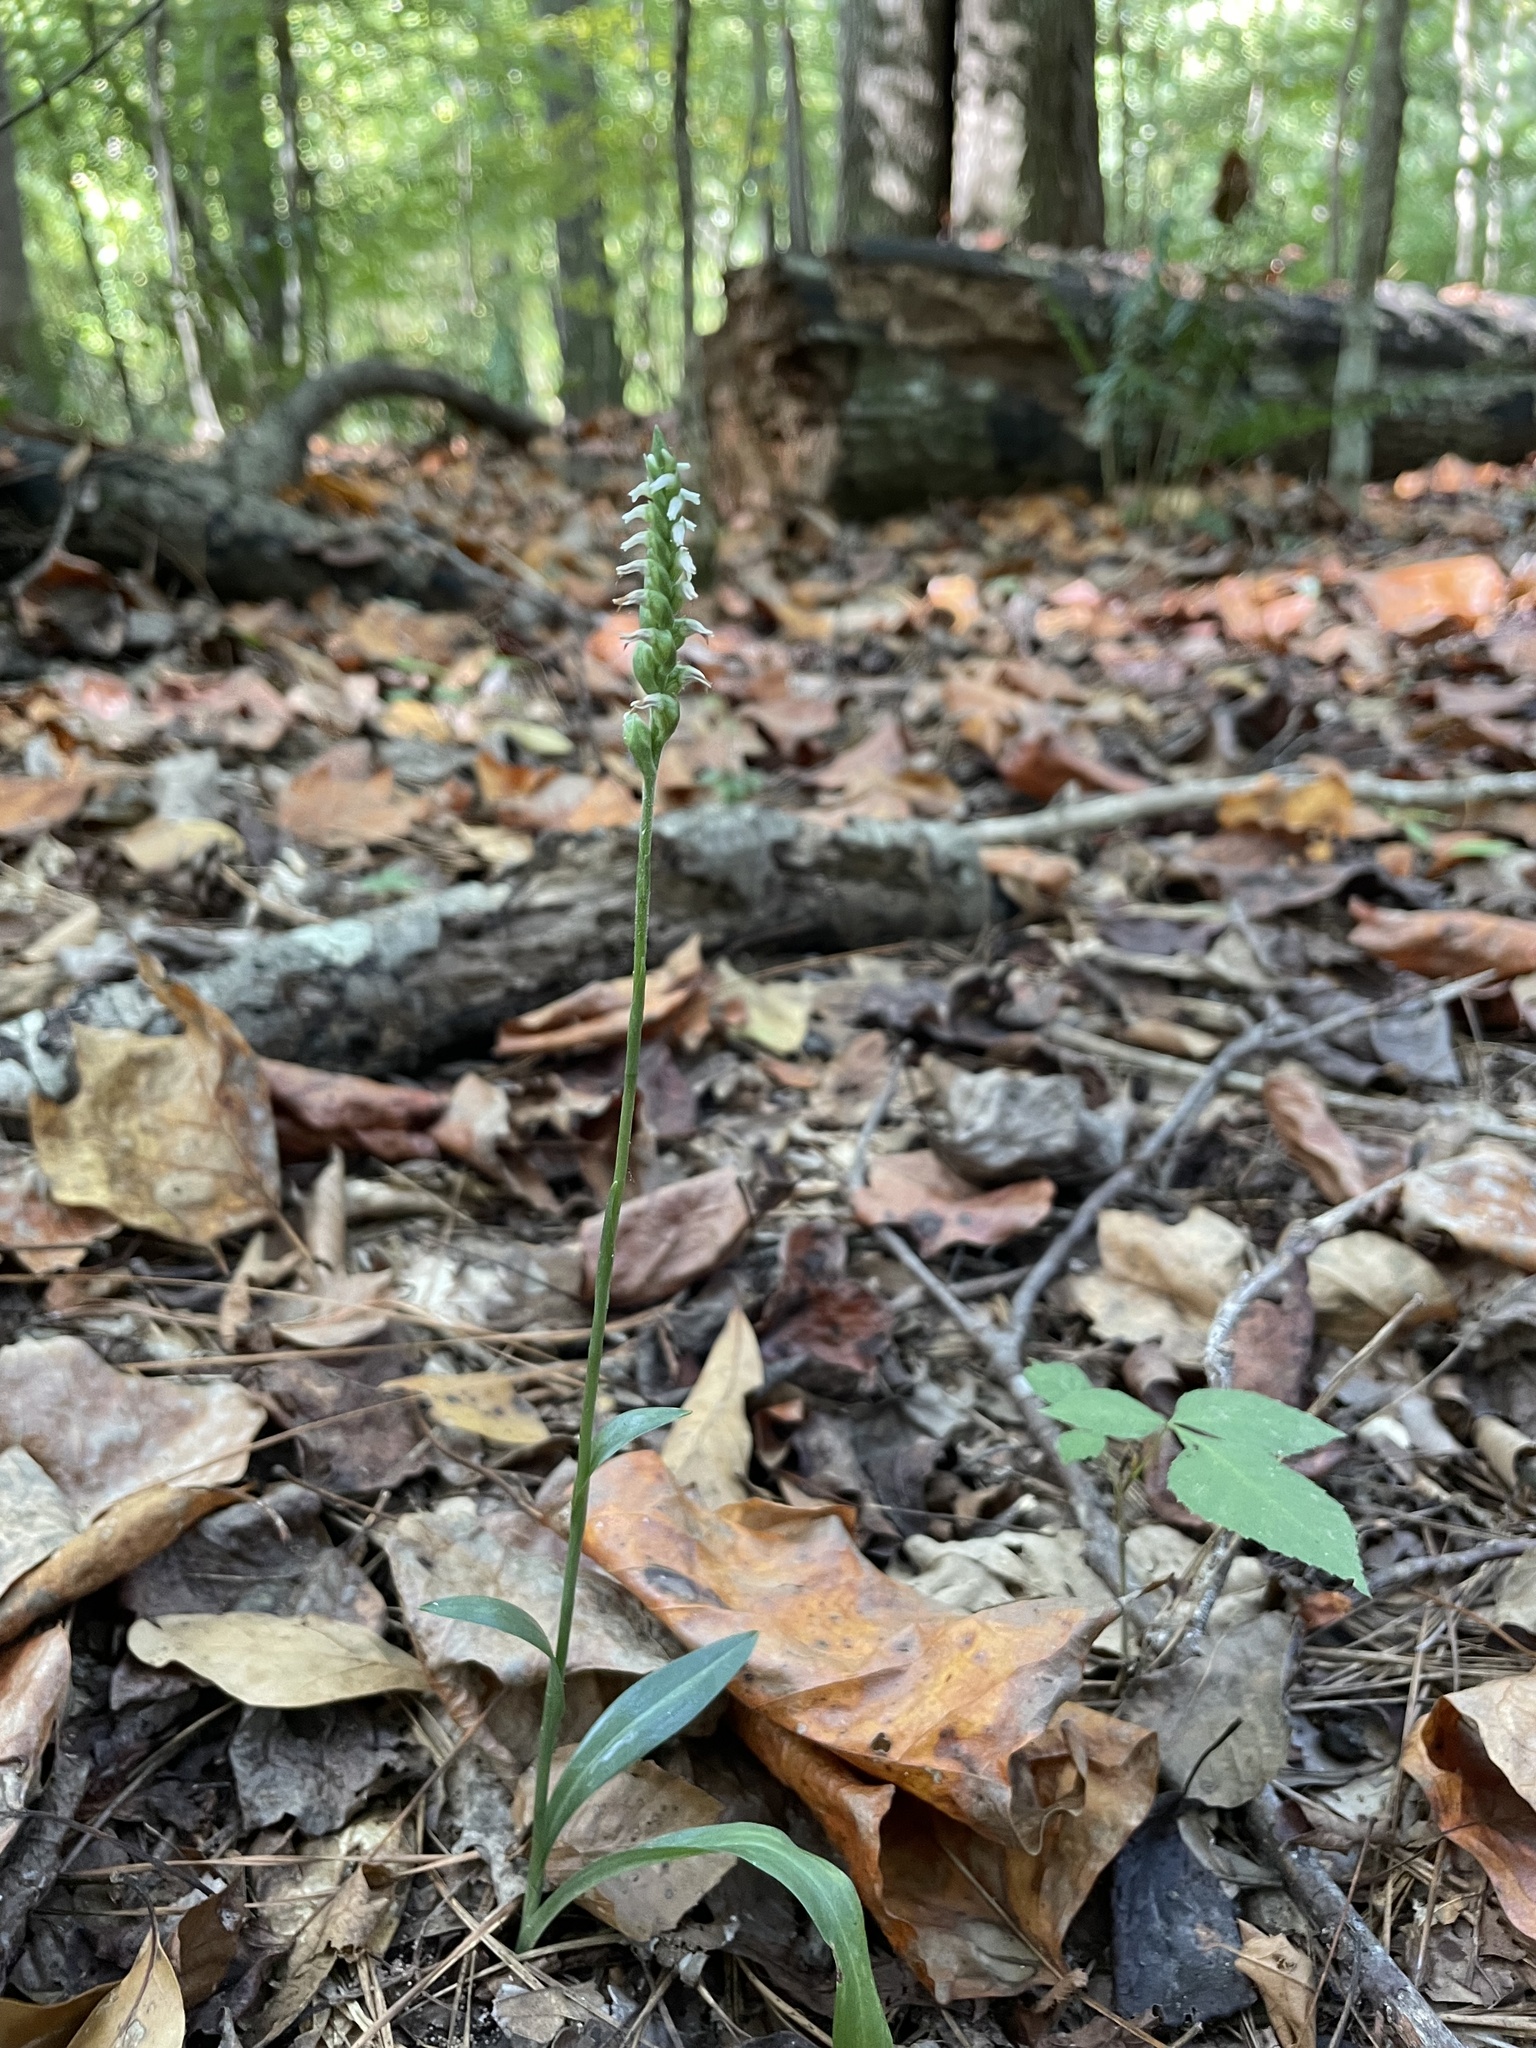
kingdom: Plantae
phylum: Tracheophyta
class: Liliopsida
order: Asparagales
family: Orchidaceae
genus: Spiranthes
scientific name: Spiranthes ovalis
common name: October ladies'-tresses
